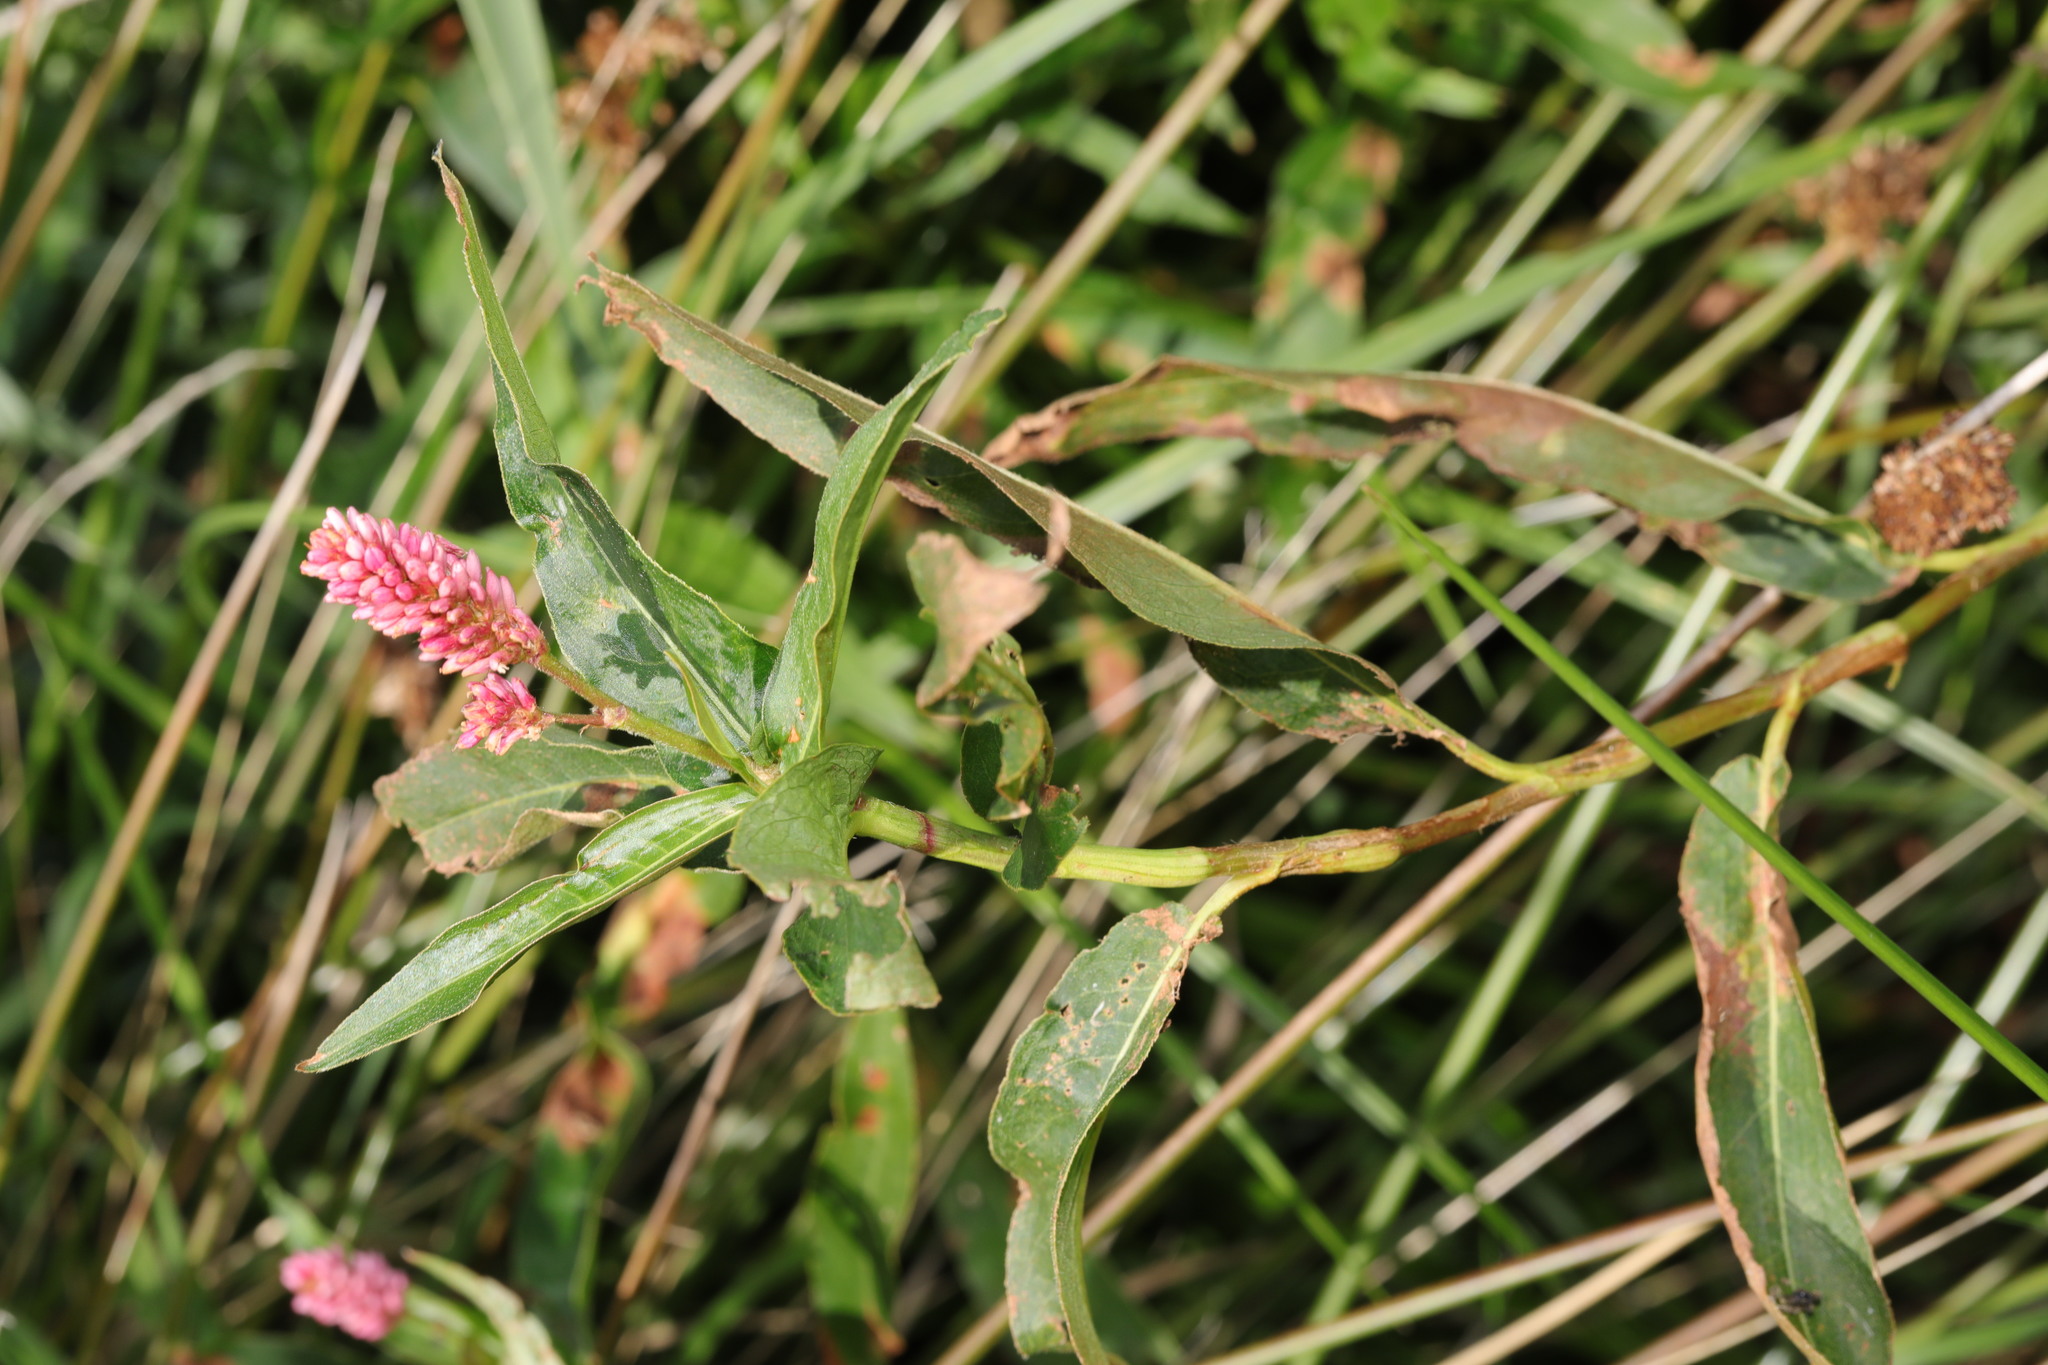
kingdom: Plantae
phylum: Tracheophyta
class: Magnoliopsida
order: Caryophyllales
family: Polygonaceae
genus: Persicaria
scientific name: Persicaria amphibia
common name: Amphibious bistort
